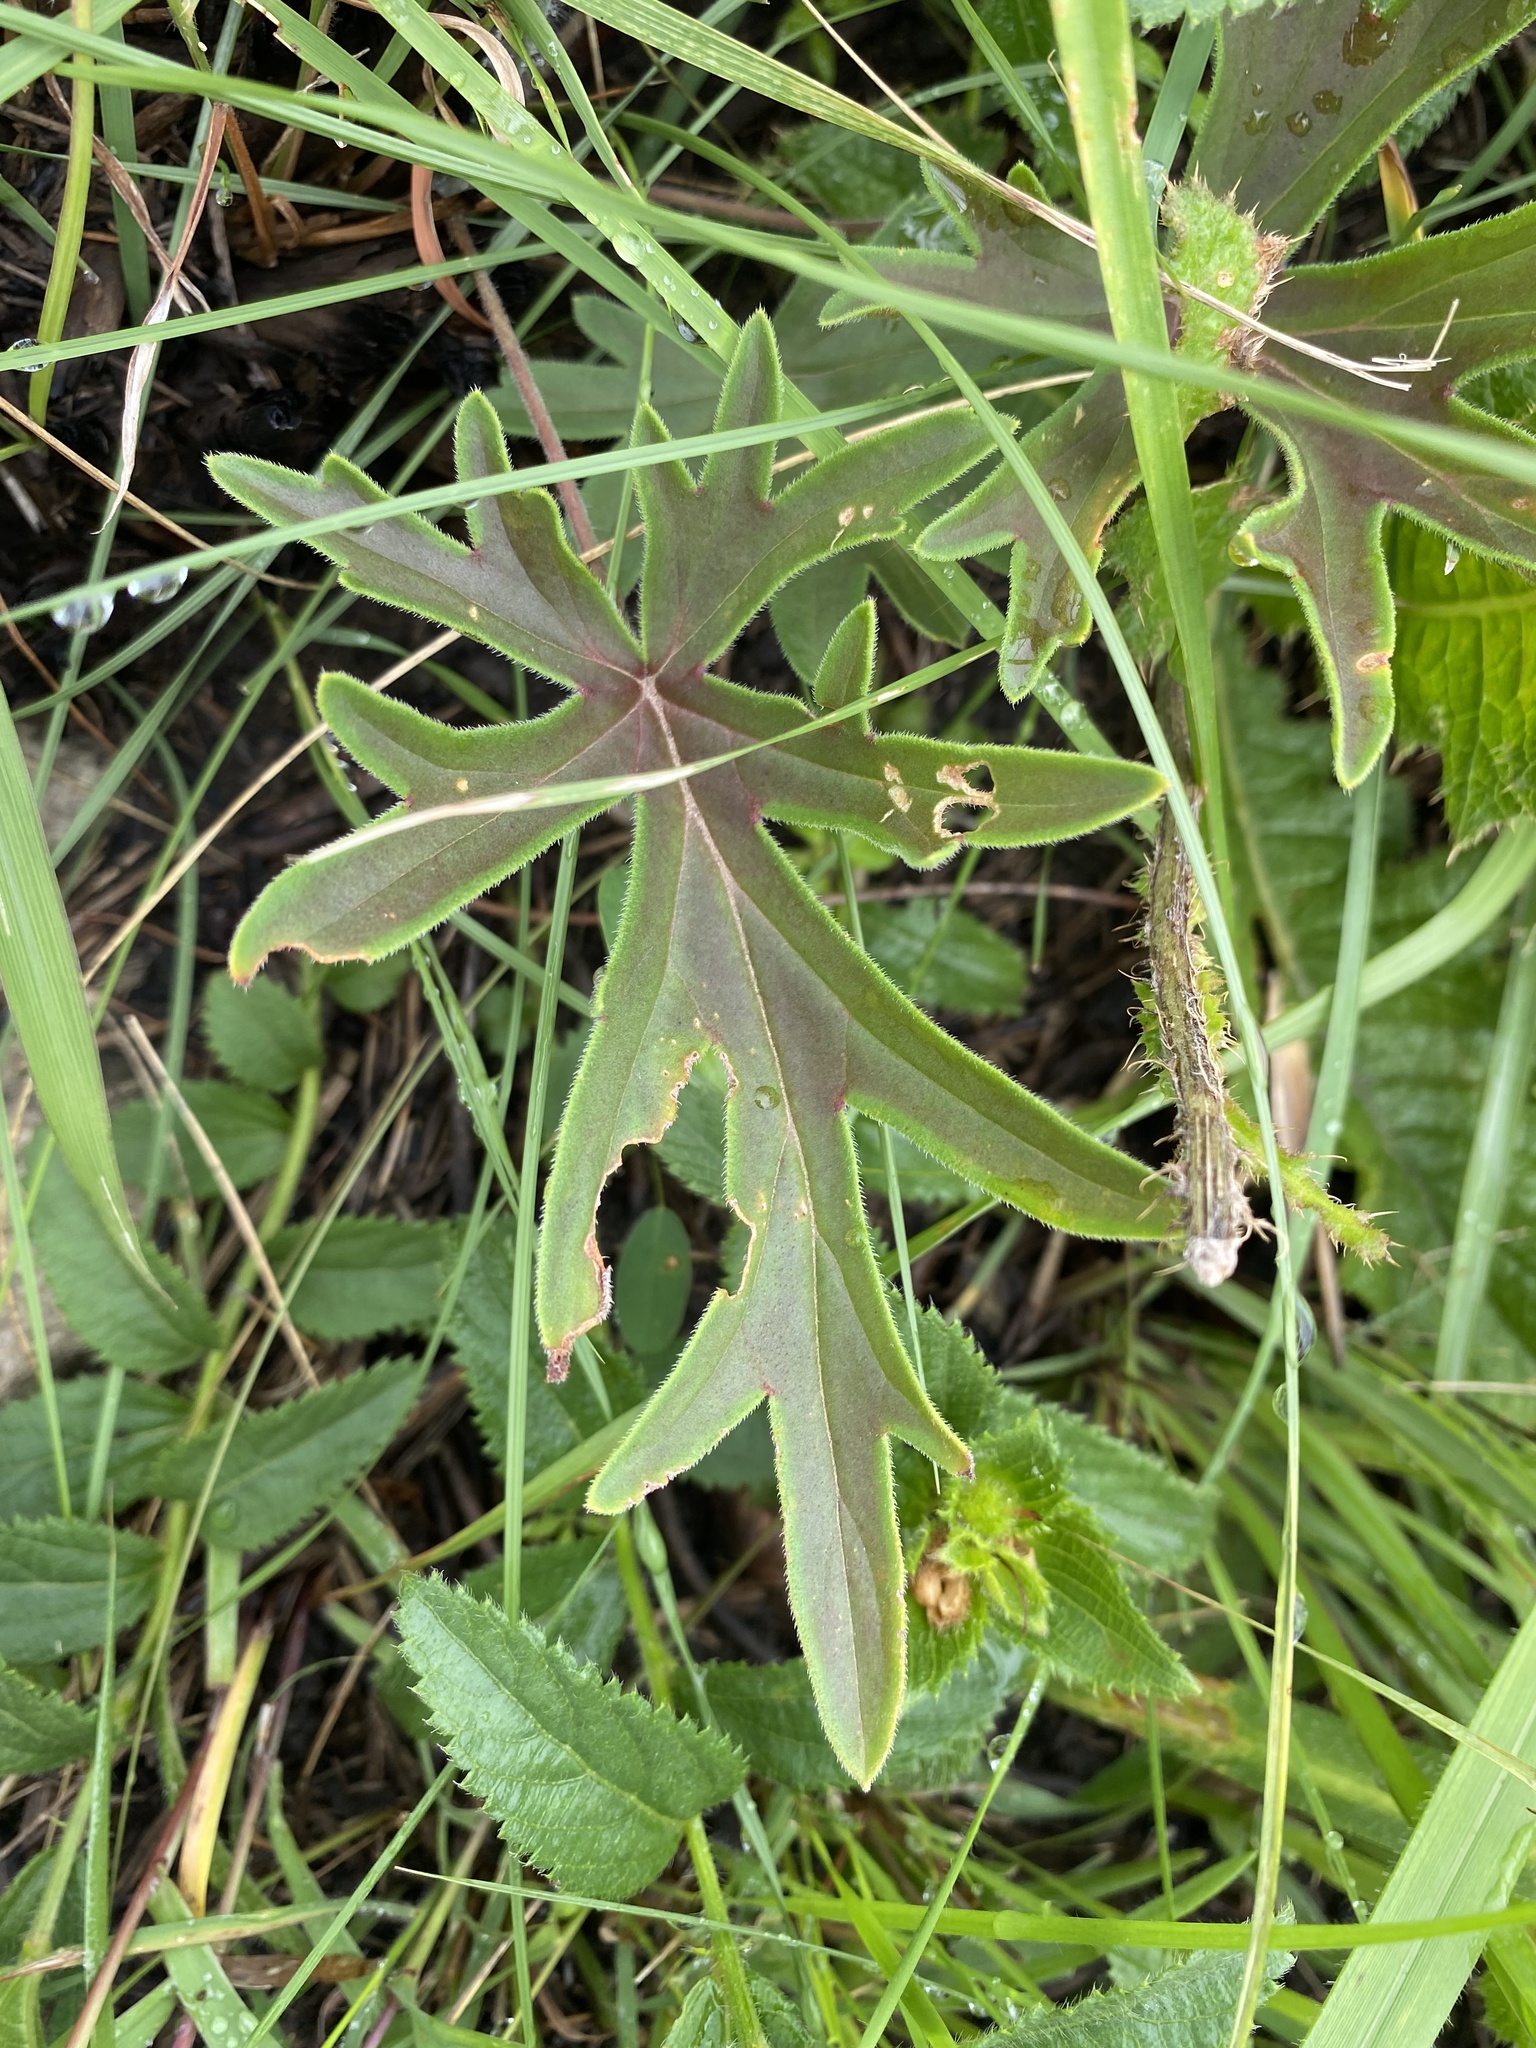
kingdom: Plantae
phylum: Tracheophyta
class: Magnoliopsida
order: Geraniales
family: Geraniaceae
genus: Pelargonium
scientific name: Pelargonium luridum
